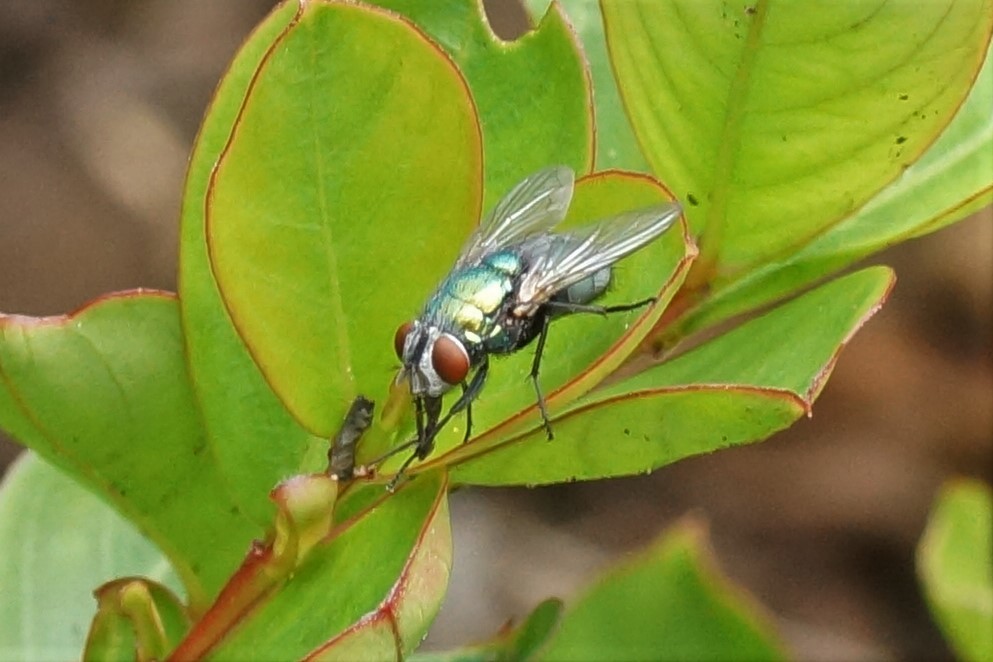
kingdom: Animalia
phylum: Arthropoda
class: Insecta
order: Diptera
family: Calliphoridae
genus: Lucilia
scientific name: Lucilia sericata
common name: Blow fly
